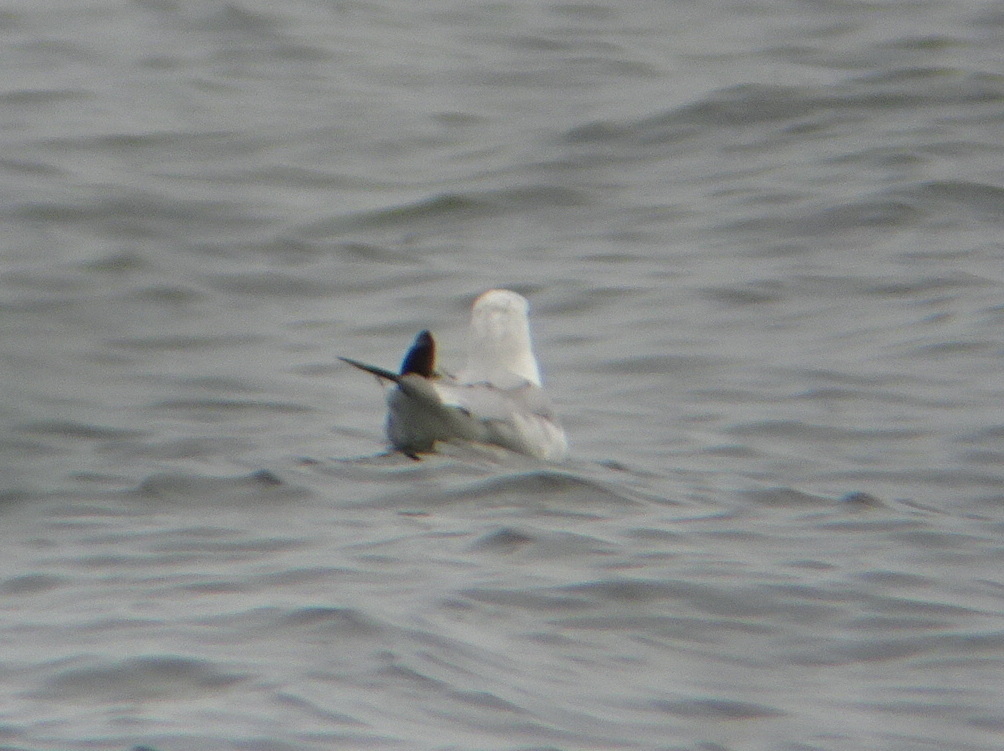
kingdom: Animalia
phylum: Chordata
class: Aves
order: Charadriiformes
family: Laridae
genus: Larus
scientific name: Larus delawarensis
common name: Ring-billed gull
